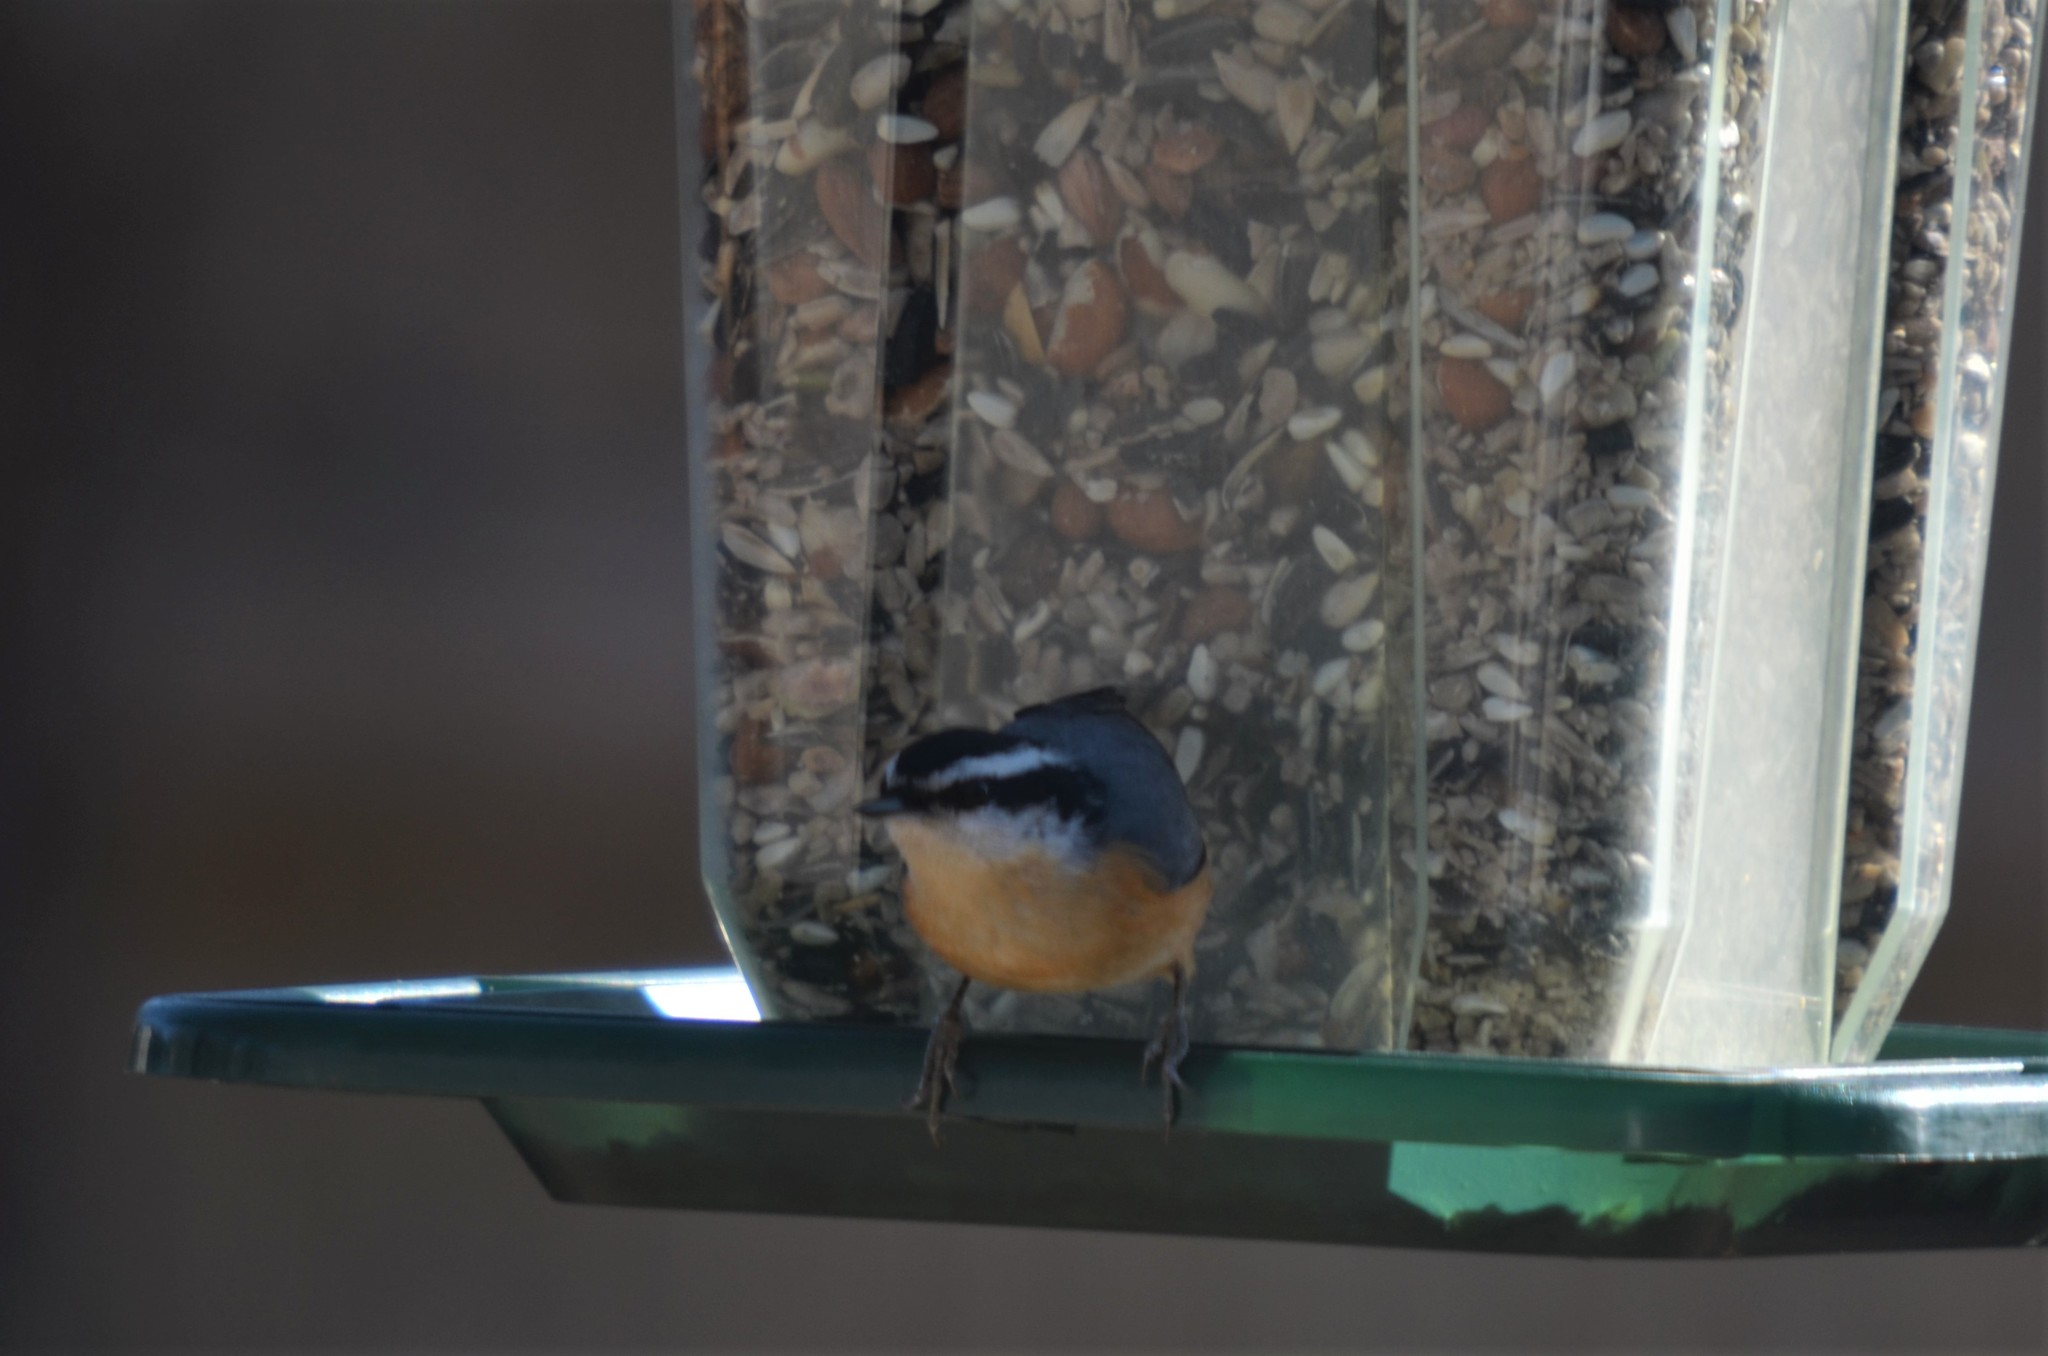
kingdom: Animalia
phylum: Chordata
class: Aves
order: Passeriformes
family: Sittidae
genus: Sitta
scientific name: Sitta canadensis
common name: Red-breasted nuthatch
